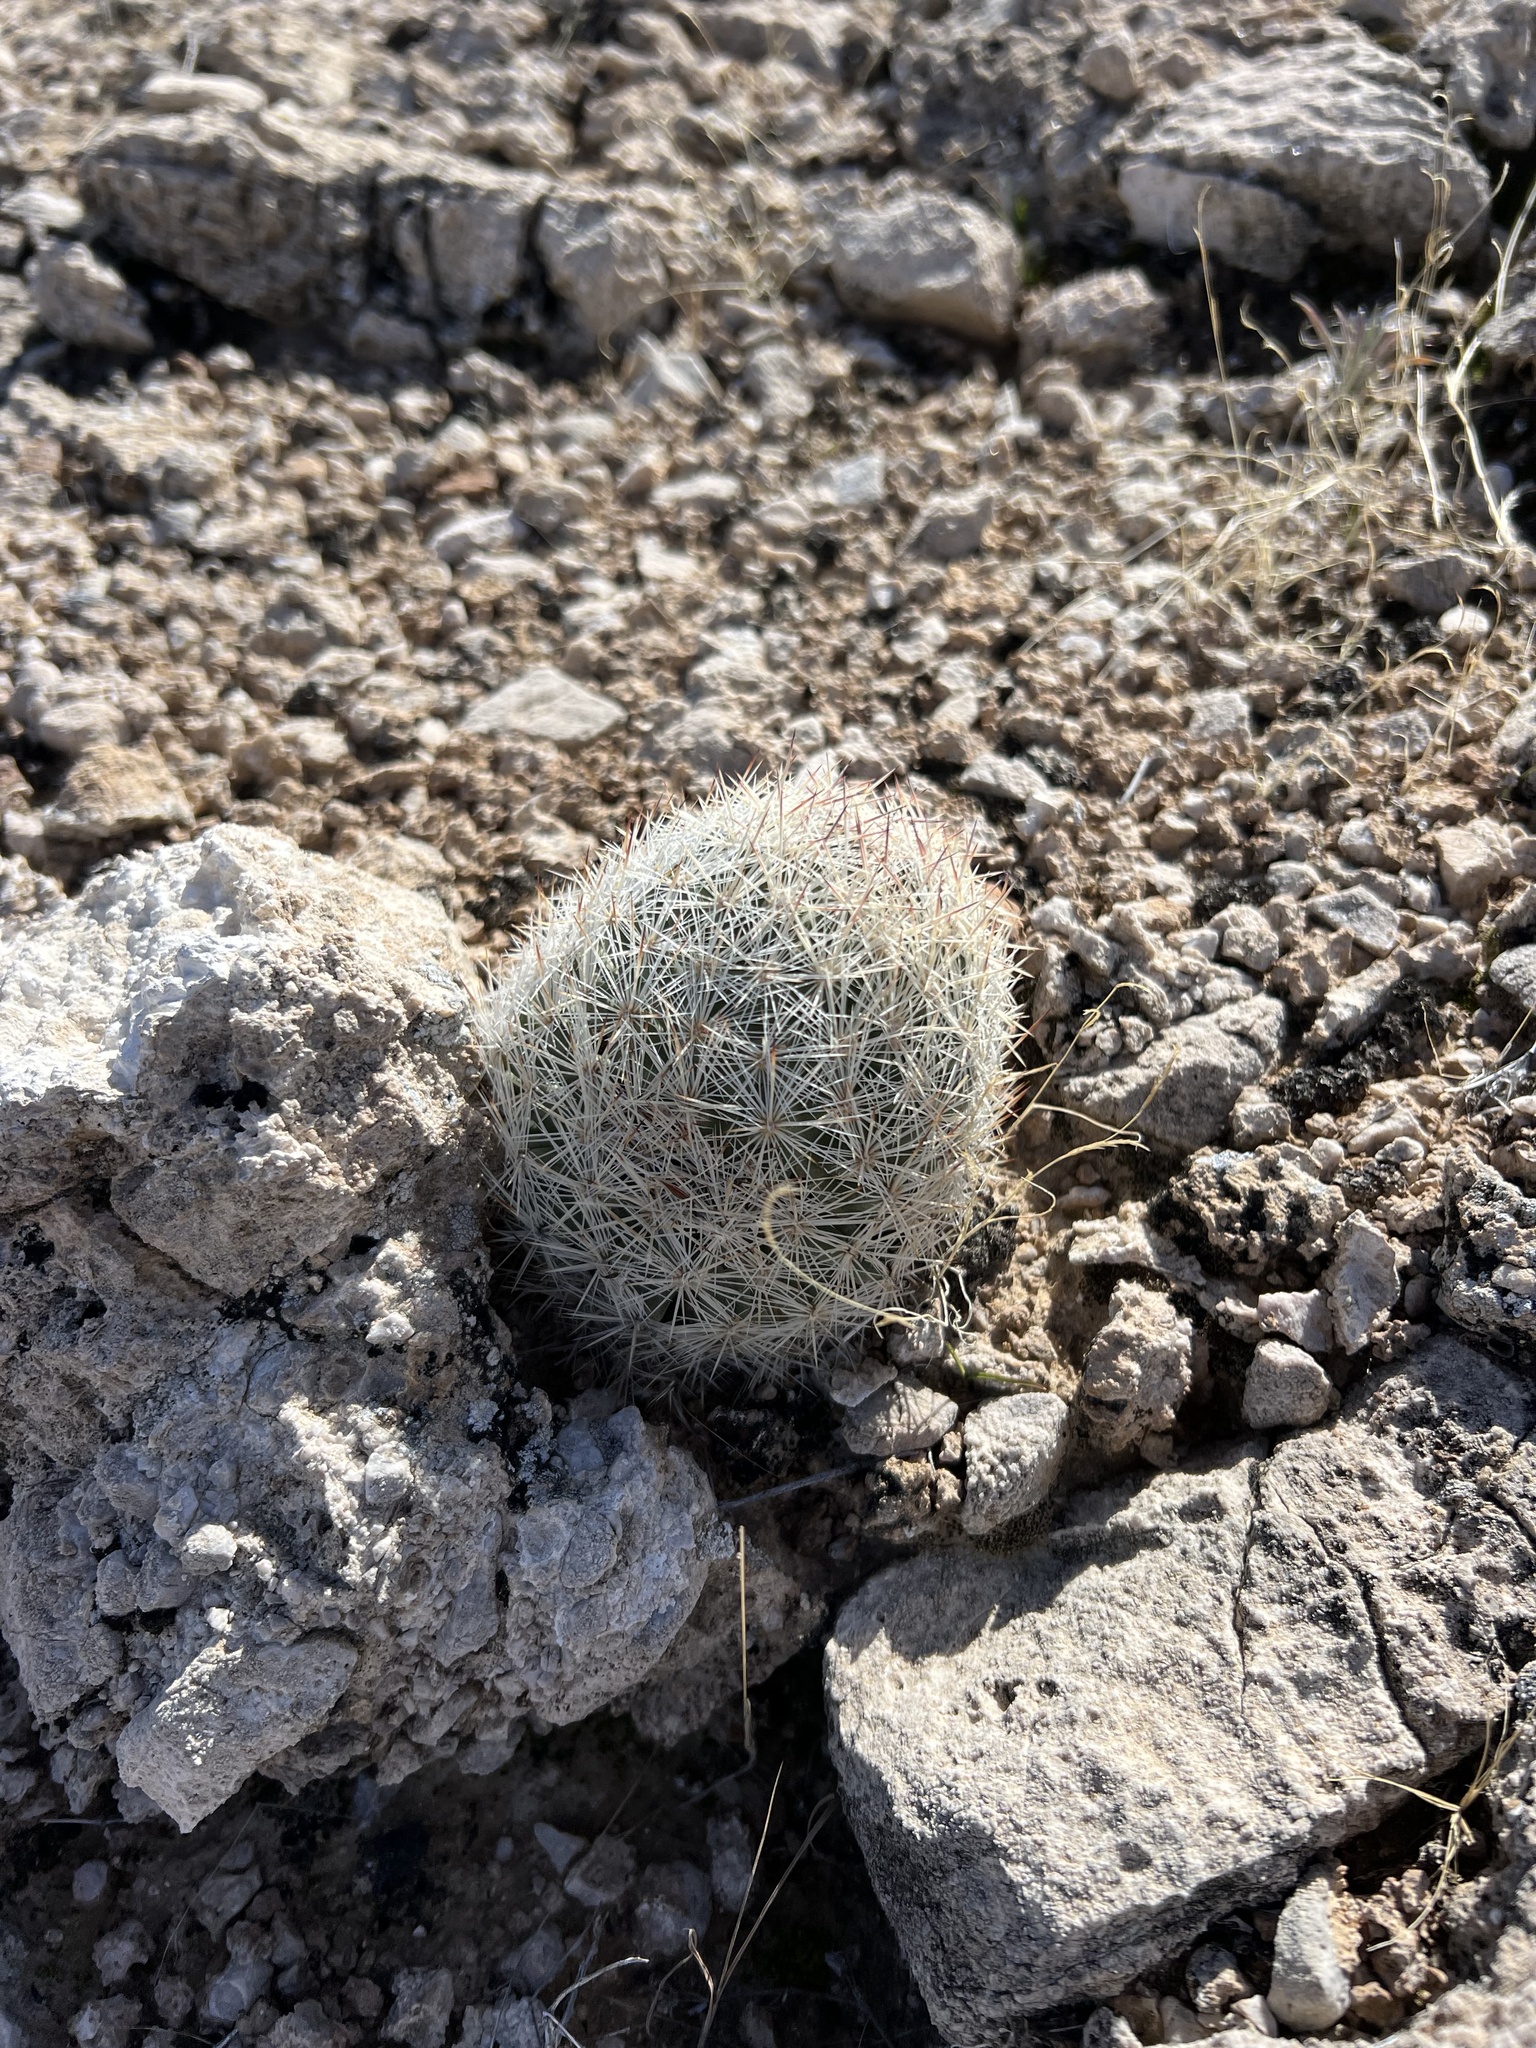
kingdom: Plantae
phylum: Tracheophyta
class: Magnoliopsida
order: Caryophyllales
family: Cactaceae
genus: Pelecyphora
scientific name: Pelecyphora dasyacantha
